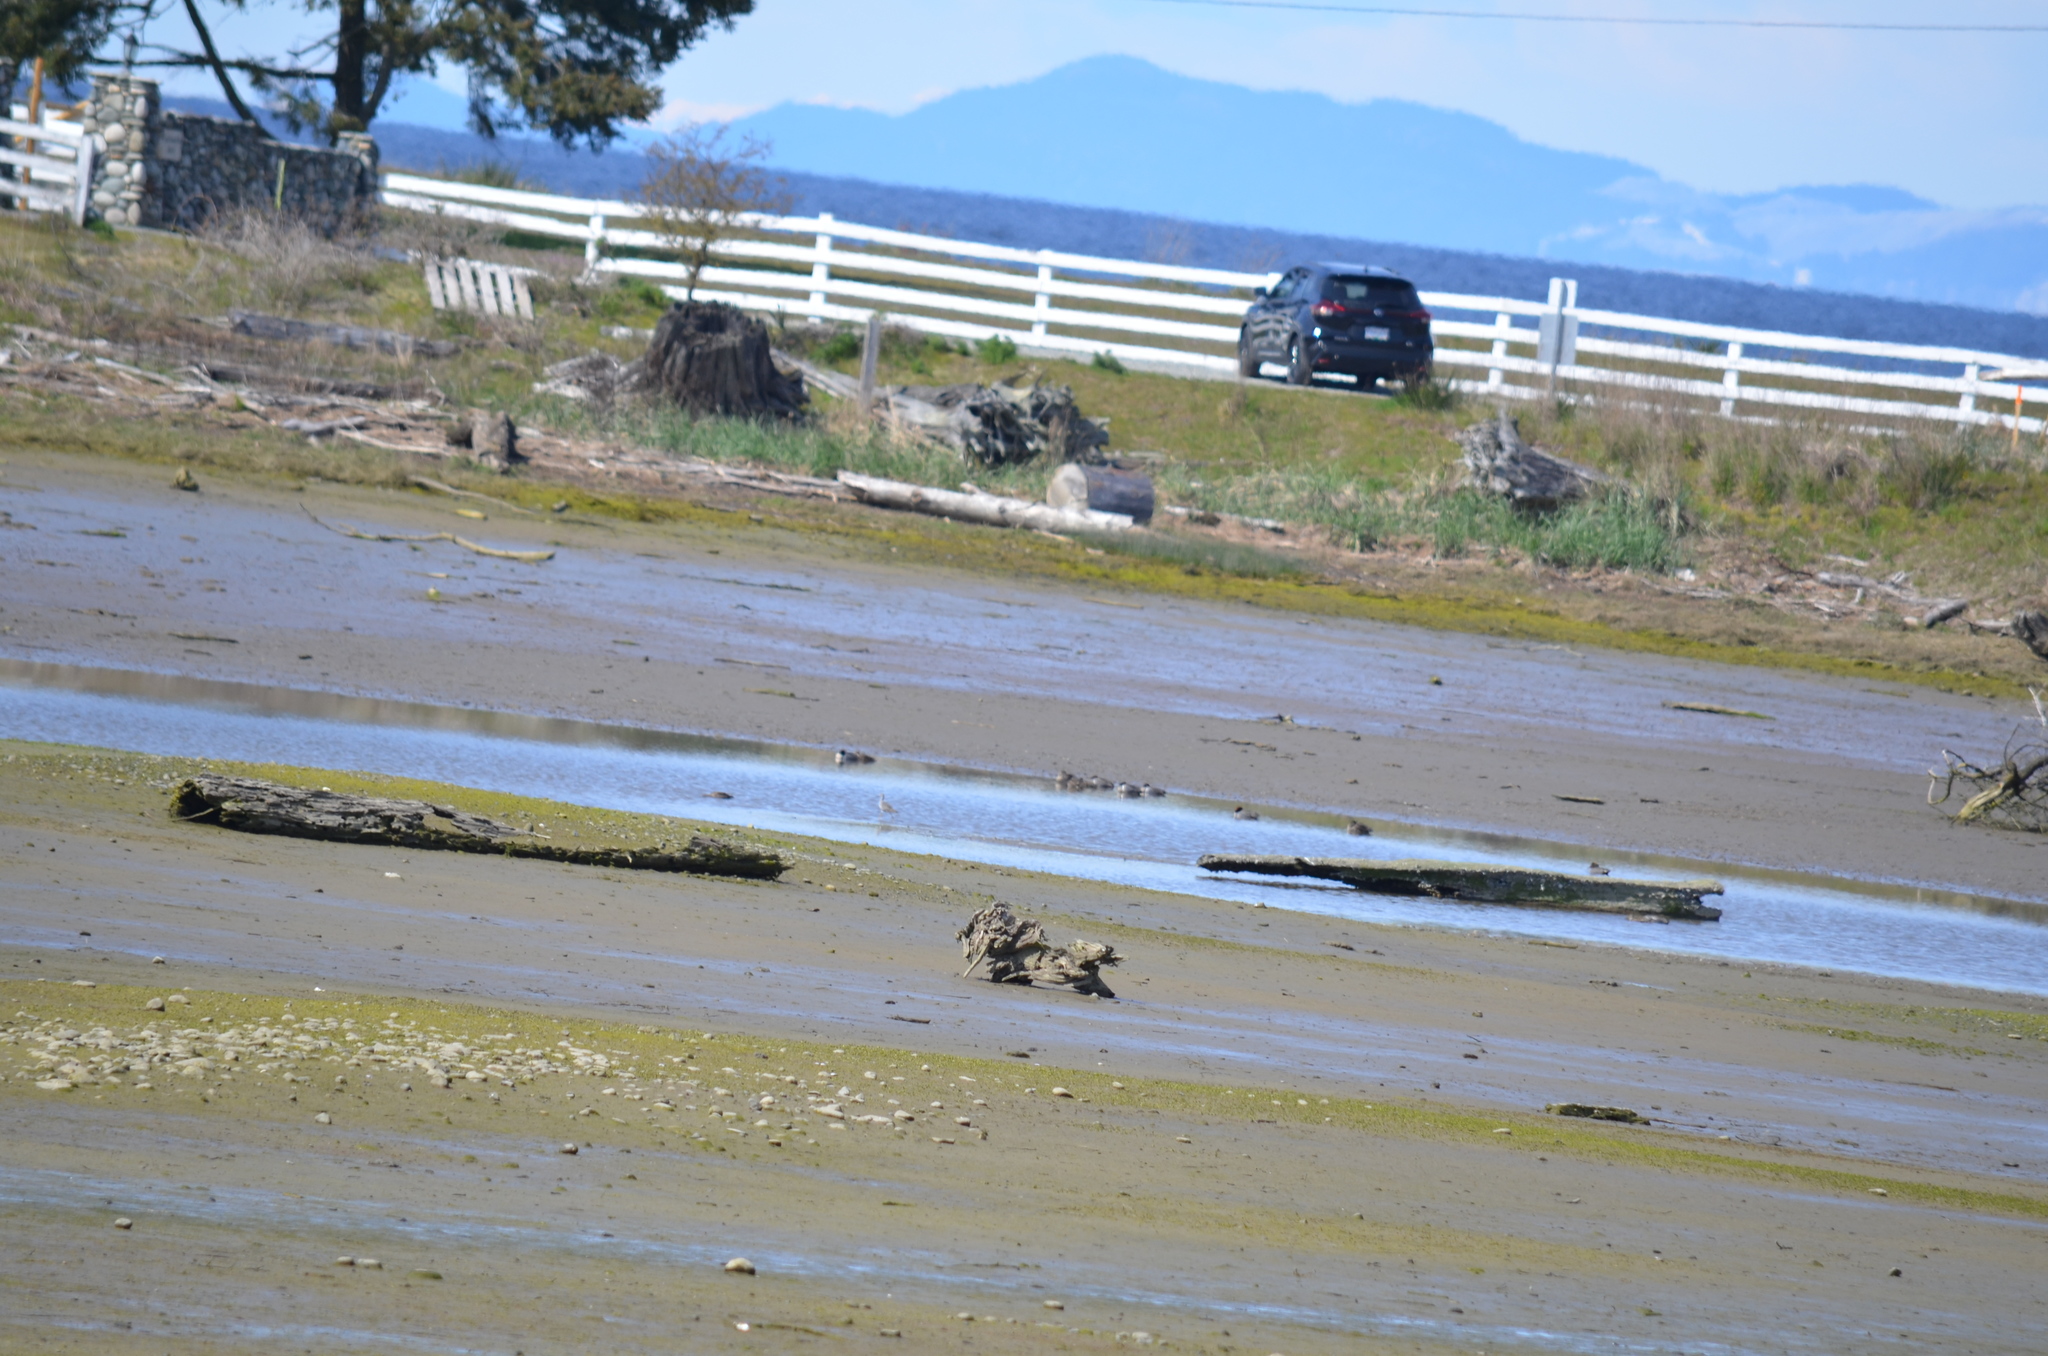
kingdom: Animalia
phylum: Chordata
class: Aves
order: Anseriformes
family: Anatidae
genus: Anas
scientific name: Anas crecca
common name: Eurasian teal
